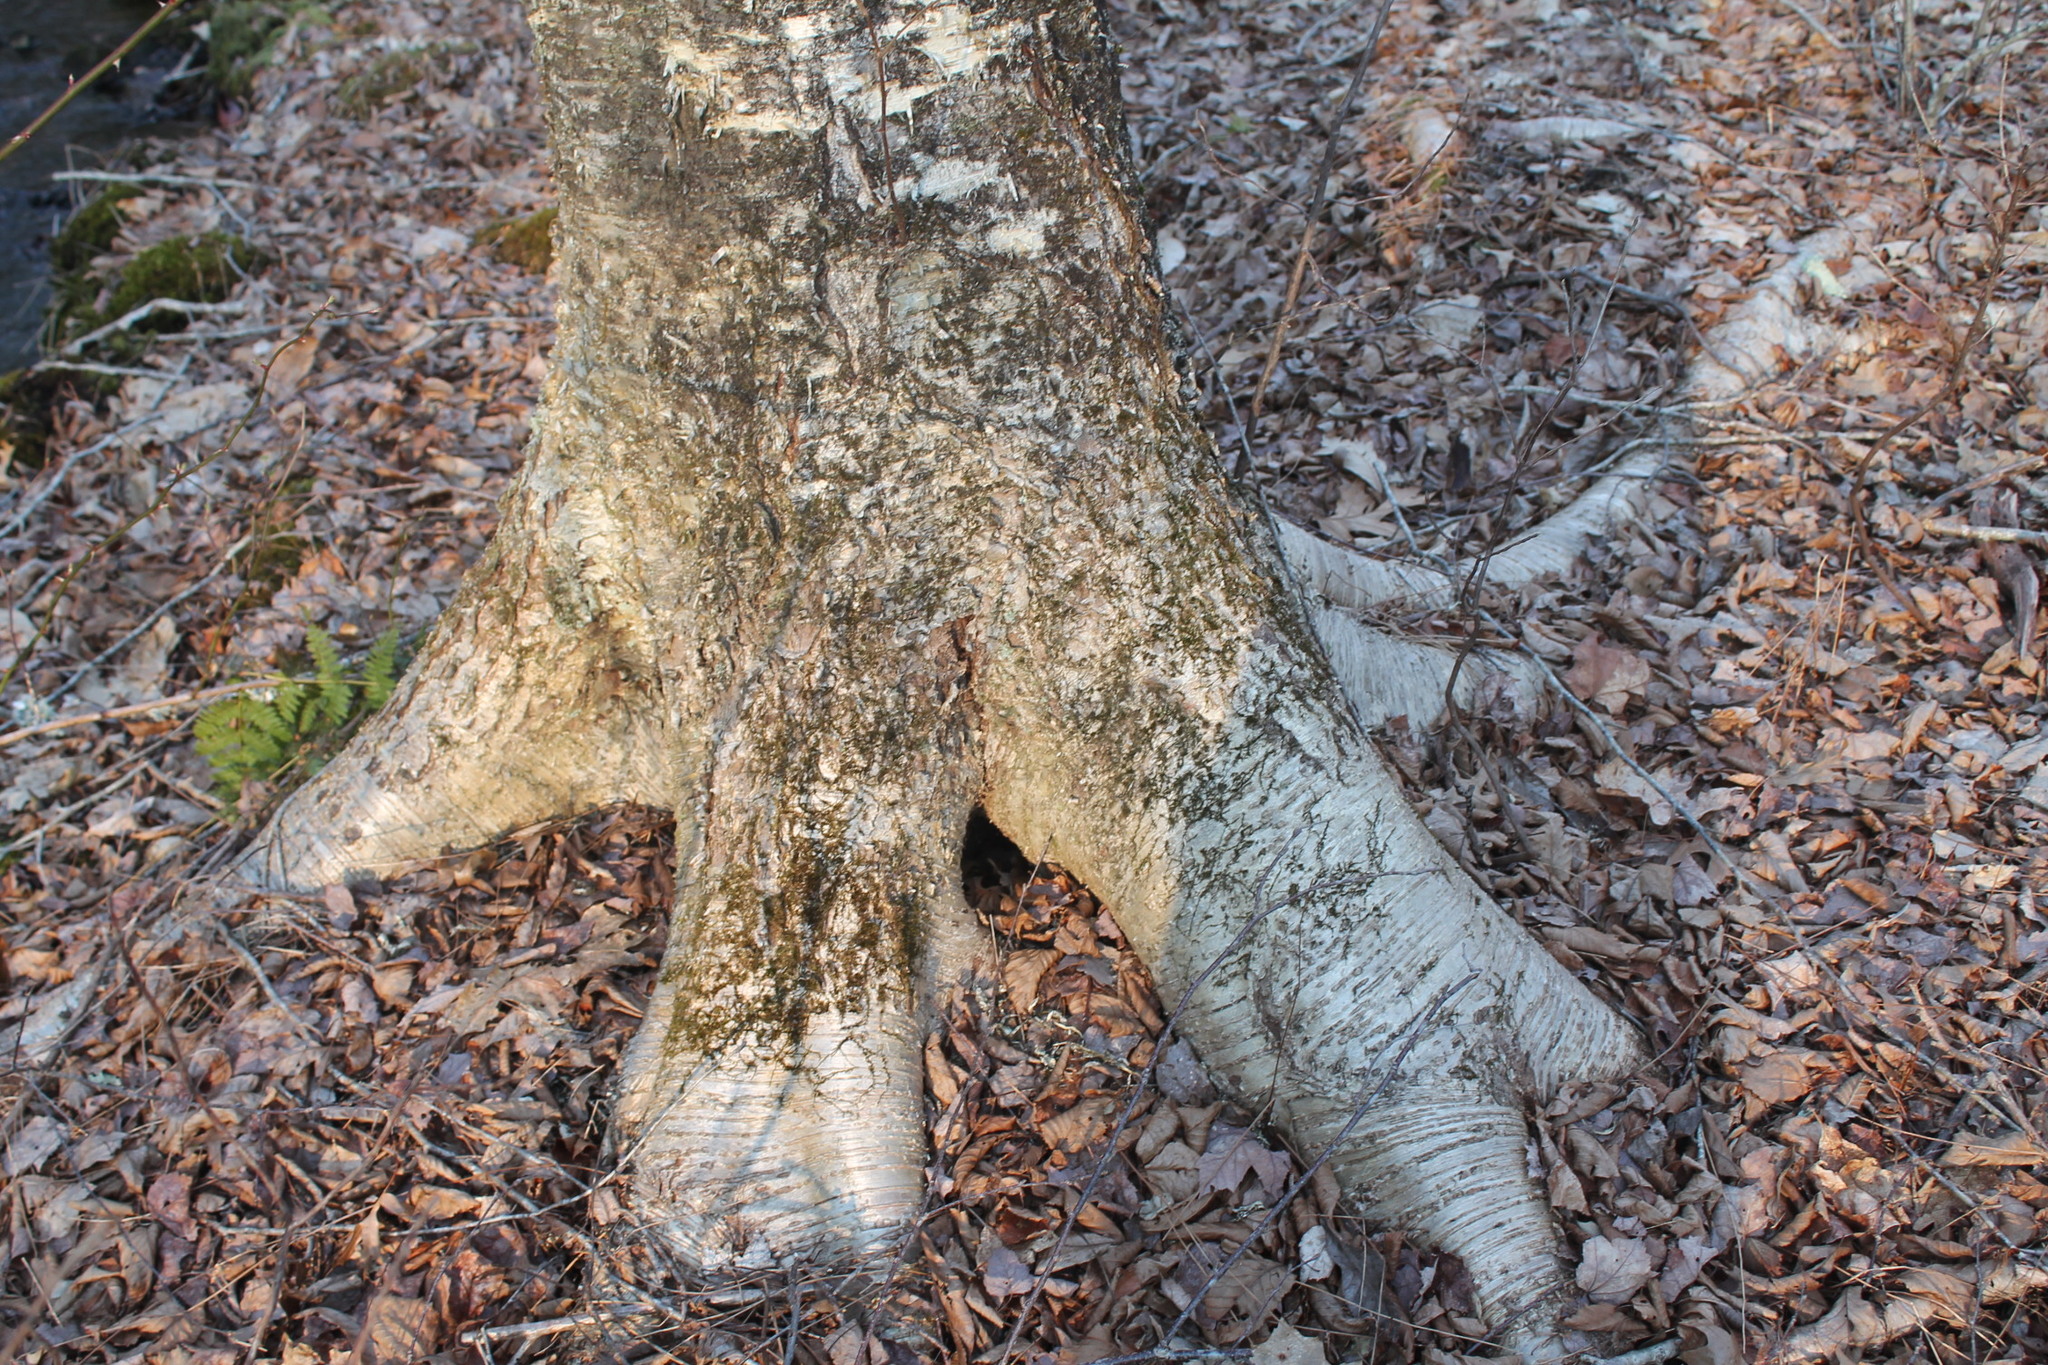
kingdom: Plantae
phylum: Tracheophyta
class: Magnoliopsida
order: Fagales
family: Betulaceae
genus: Betula
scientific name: Betula alleghaniensis
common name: Yellow birch
